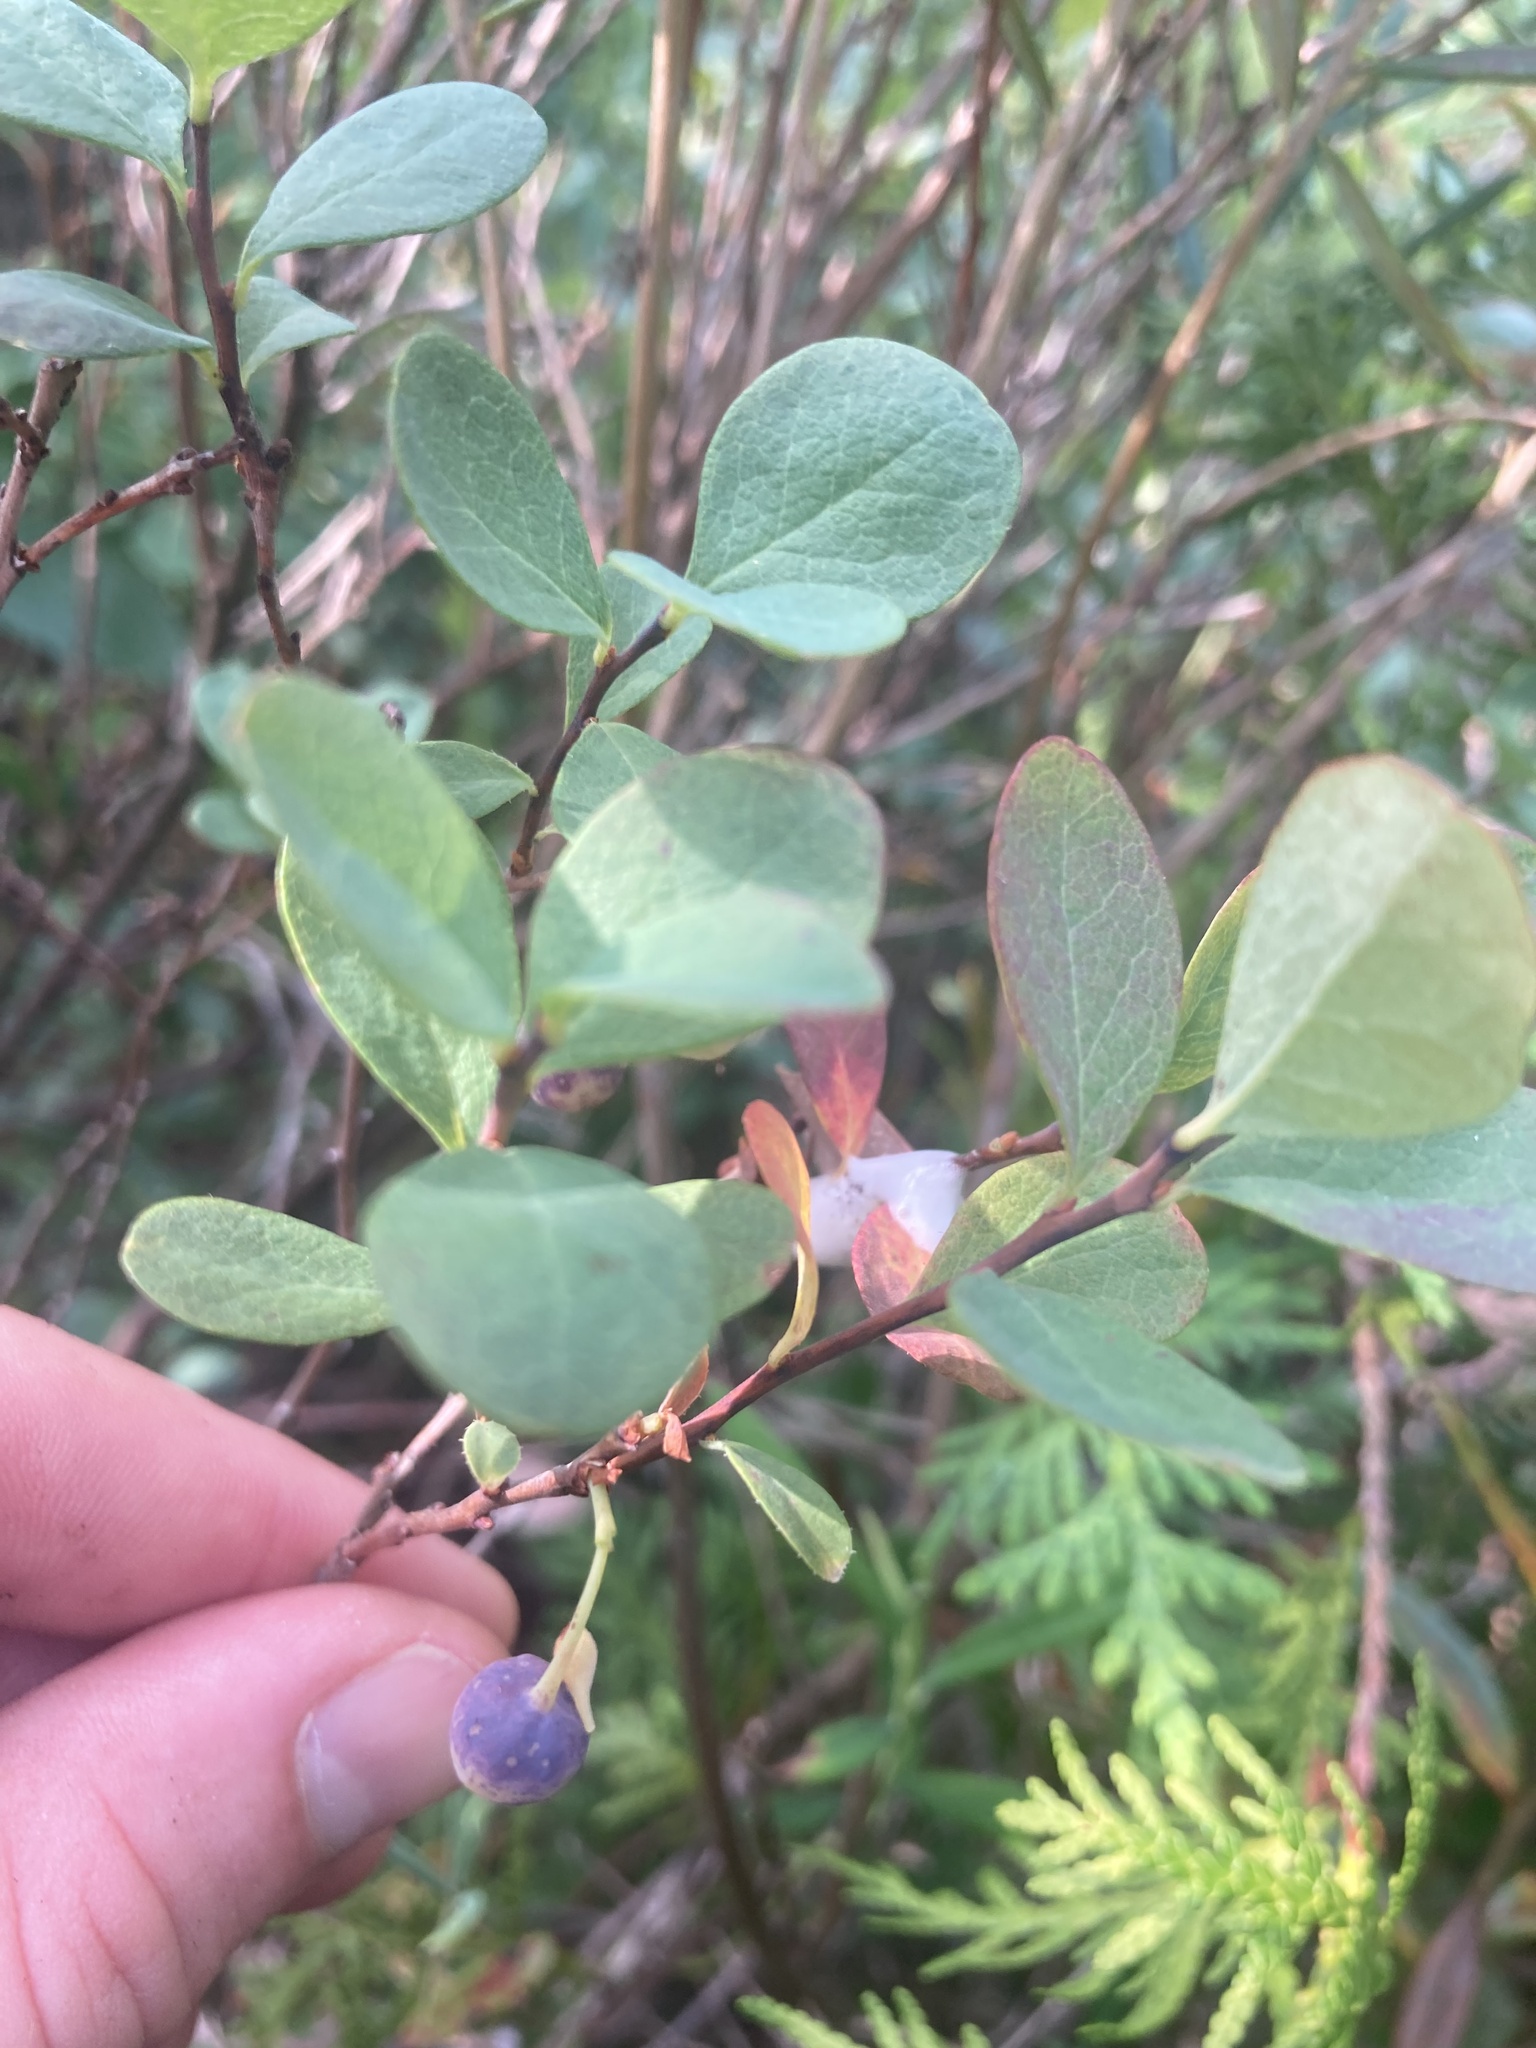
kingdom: Plantae
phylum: Tracheophyta
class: Magnoliopsida
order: Ericales
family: Ericaceae
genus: Vaccinium
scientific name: Vaccinium uliginosum
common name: Bog bilberry
